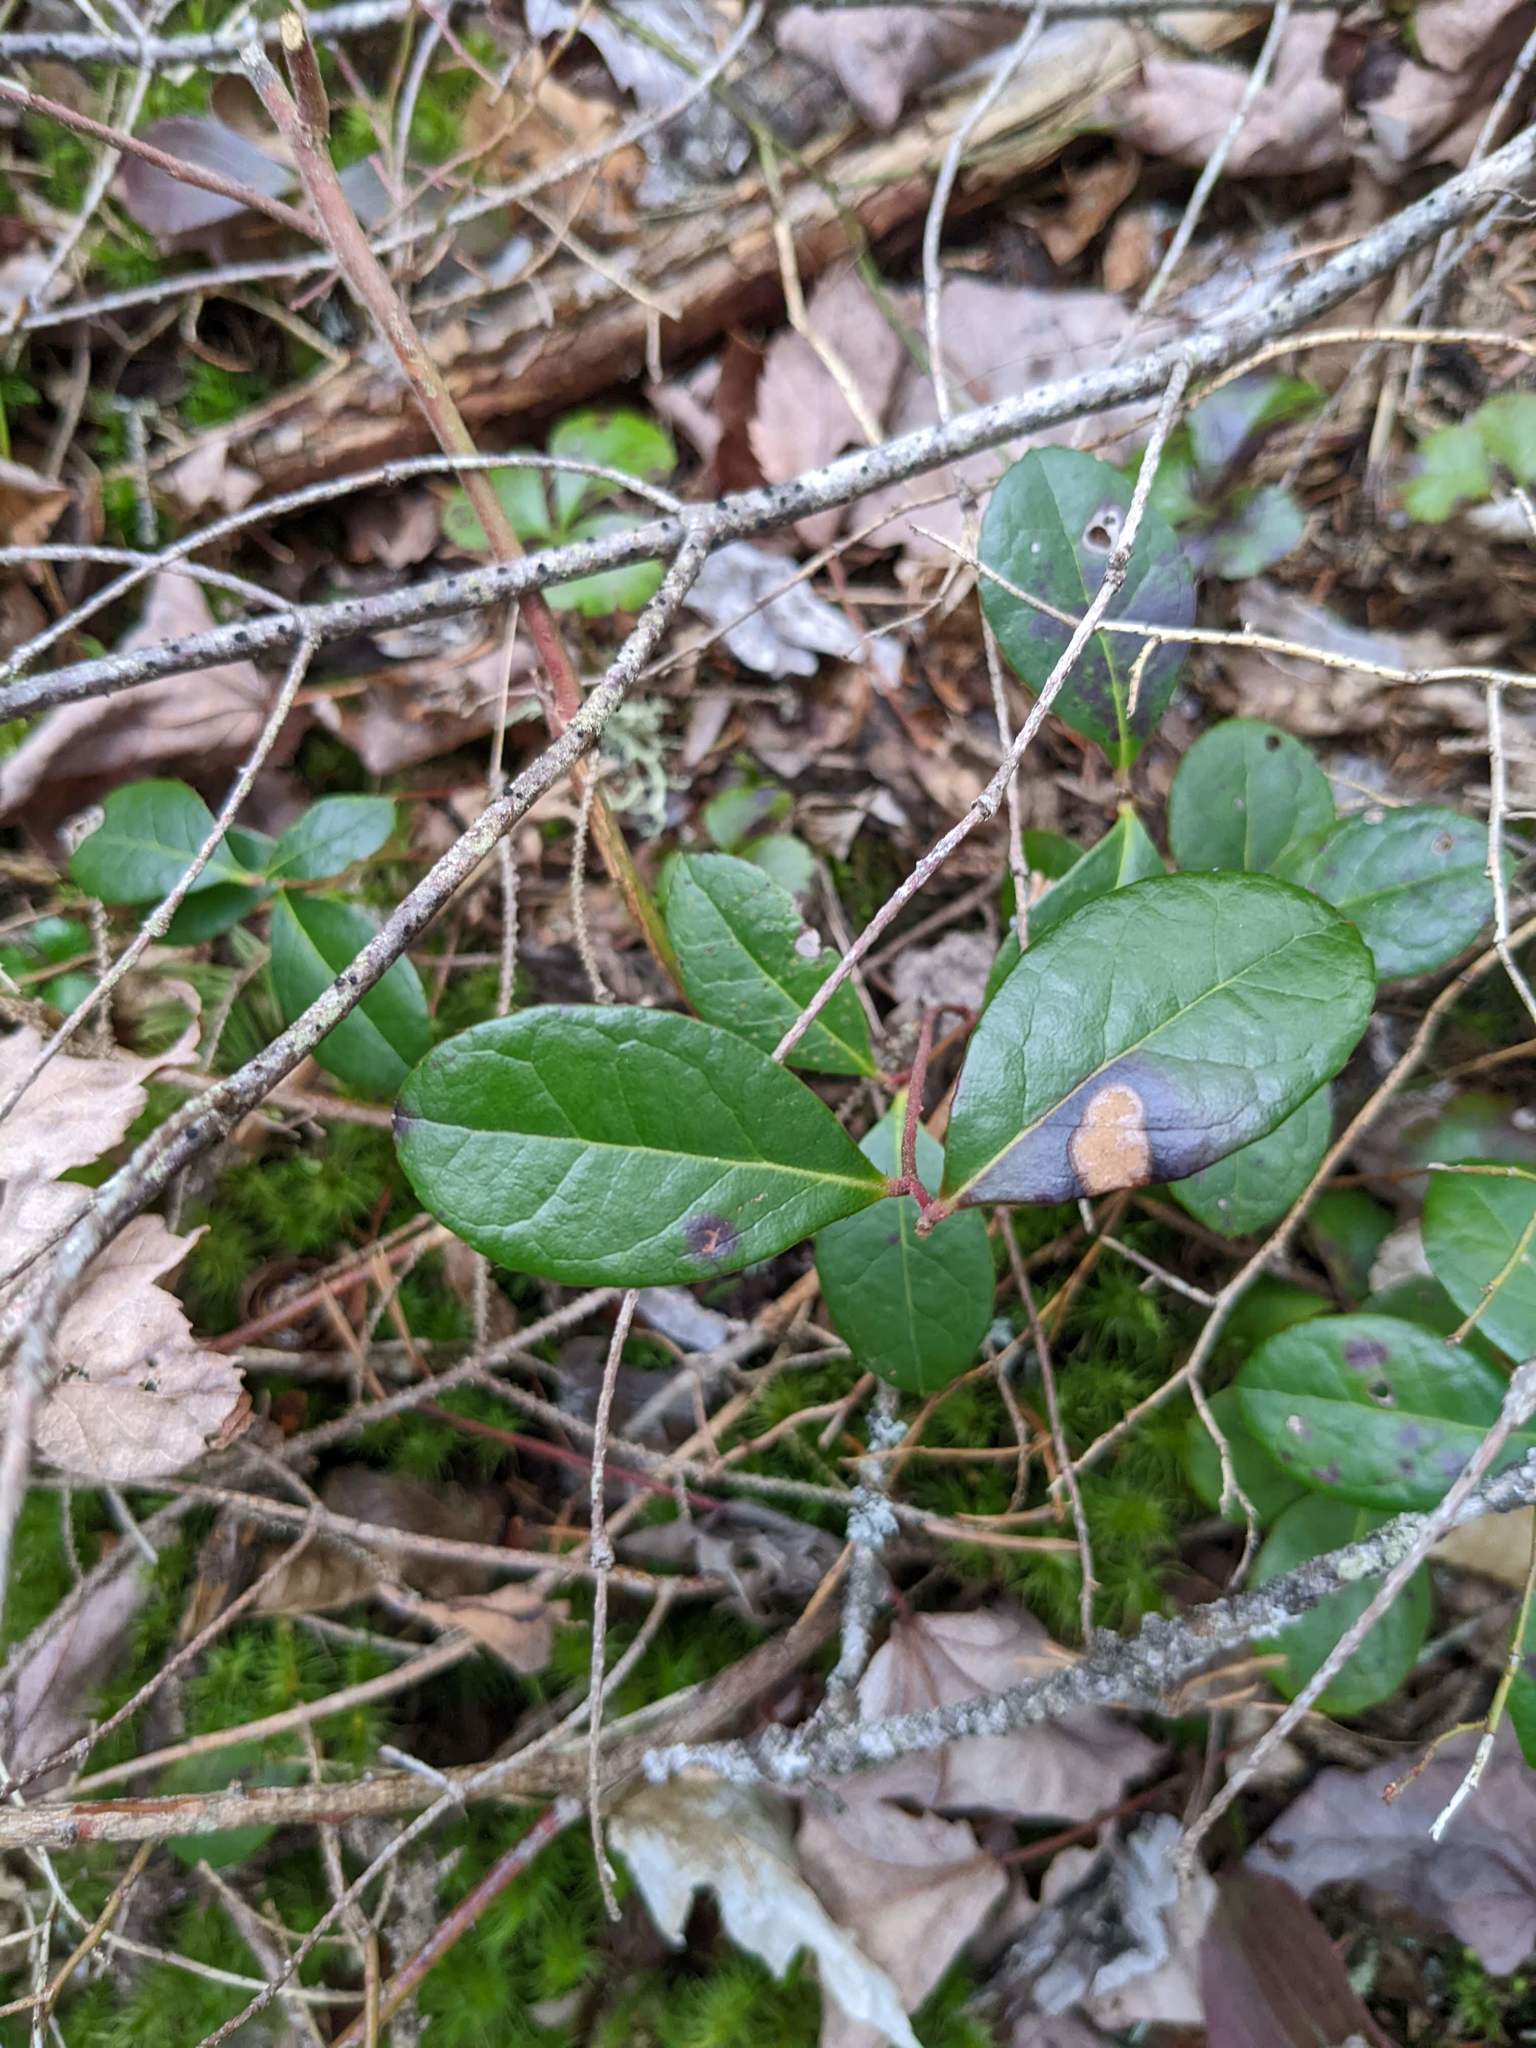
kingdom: Plantae
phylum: Tracheophyta
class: Magnoliopsida
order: Ericales
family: Ericaceae
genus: Gaultheria
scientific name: Gaultheria procumbens
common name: Checkerberry
